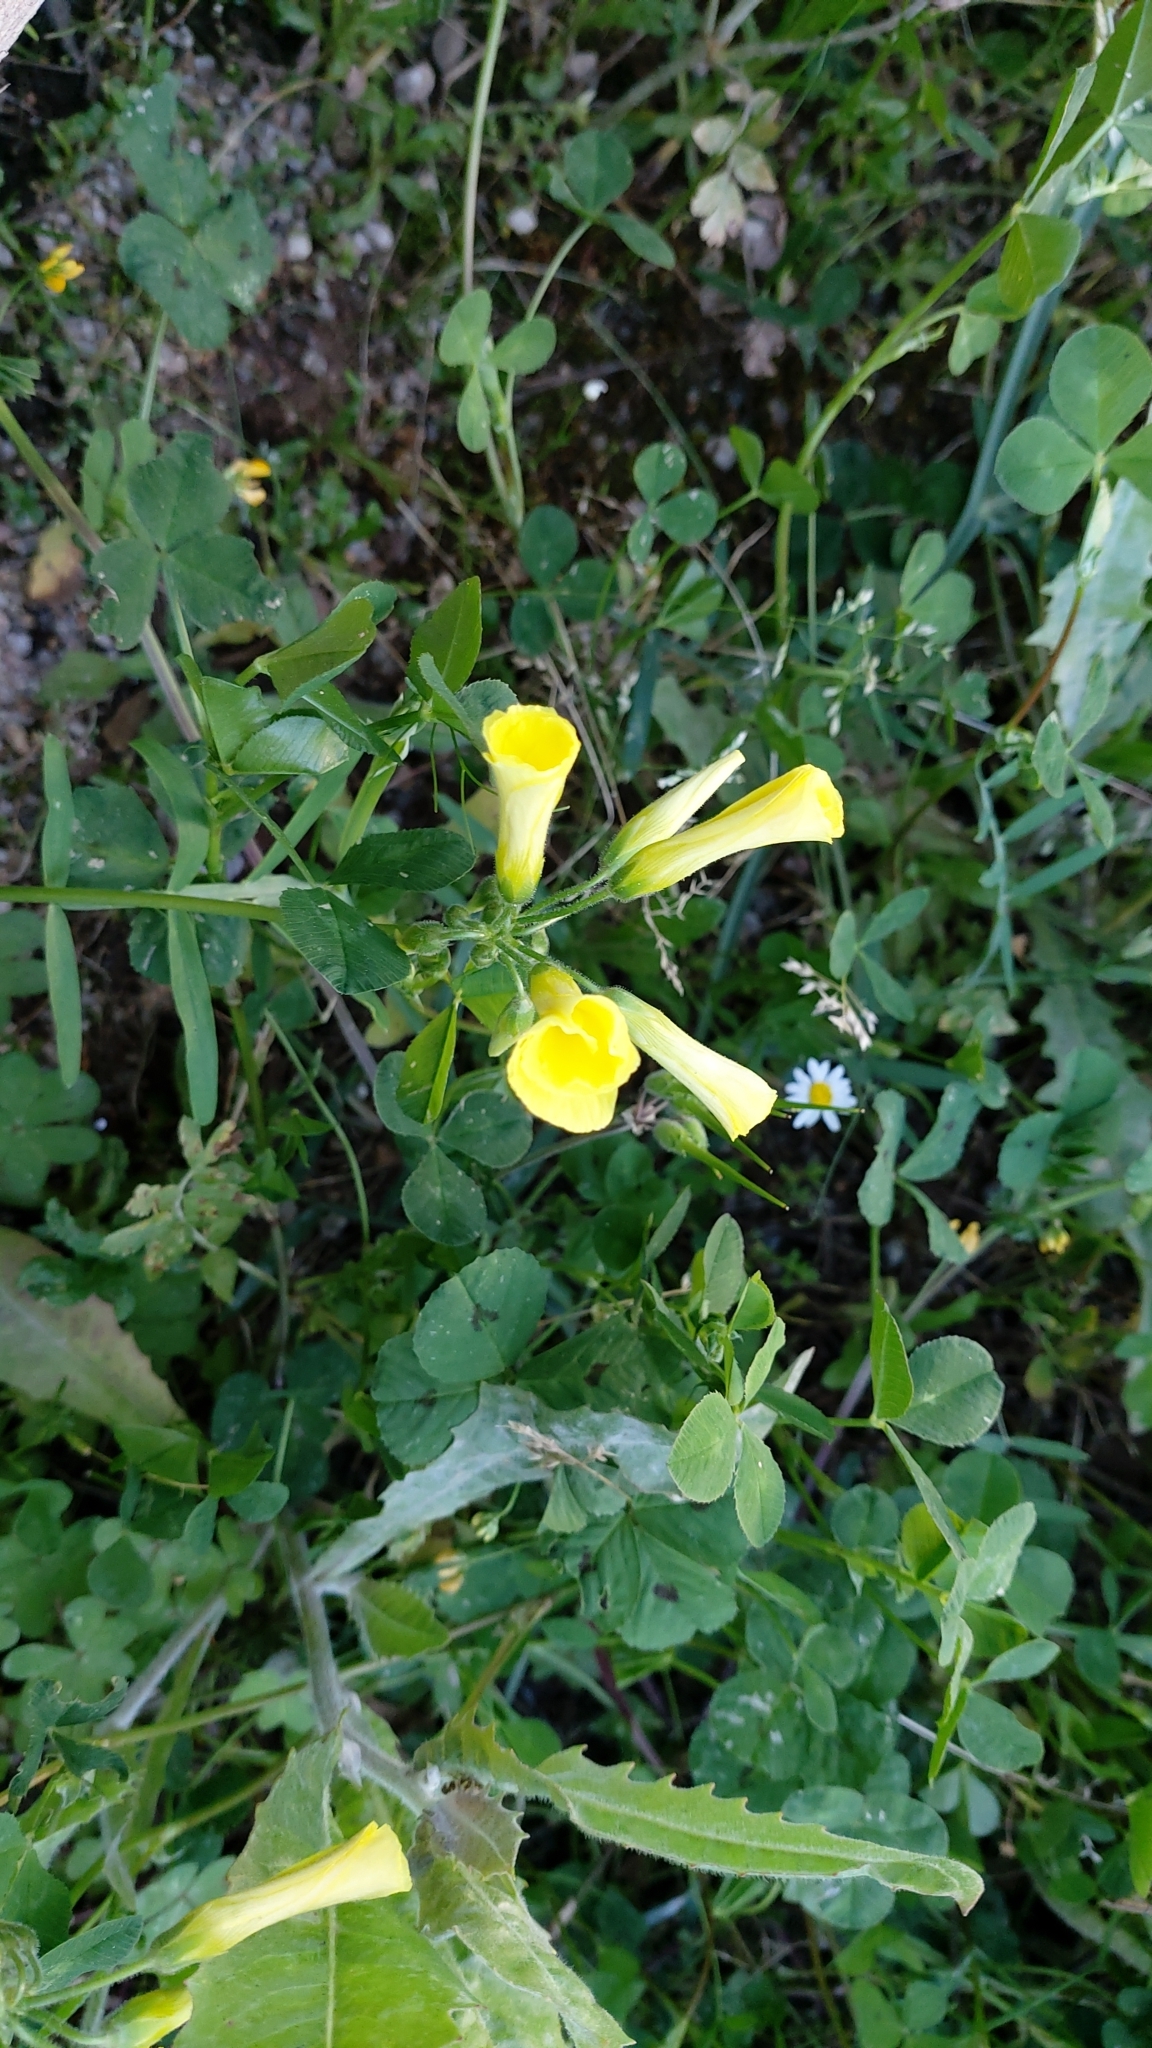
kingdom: Plantae
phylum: Tracheophyta
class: Magnoliopsida
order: Oxalidales
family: Oxalidaceae
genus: Oxalis
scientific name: Oxalis pes-caprae
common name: Bermuda-buttercup
